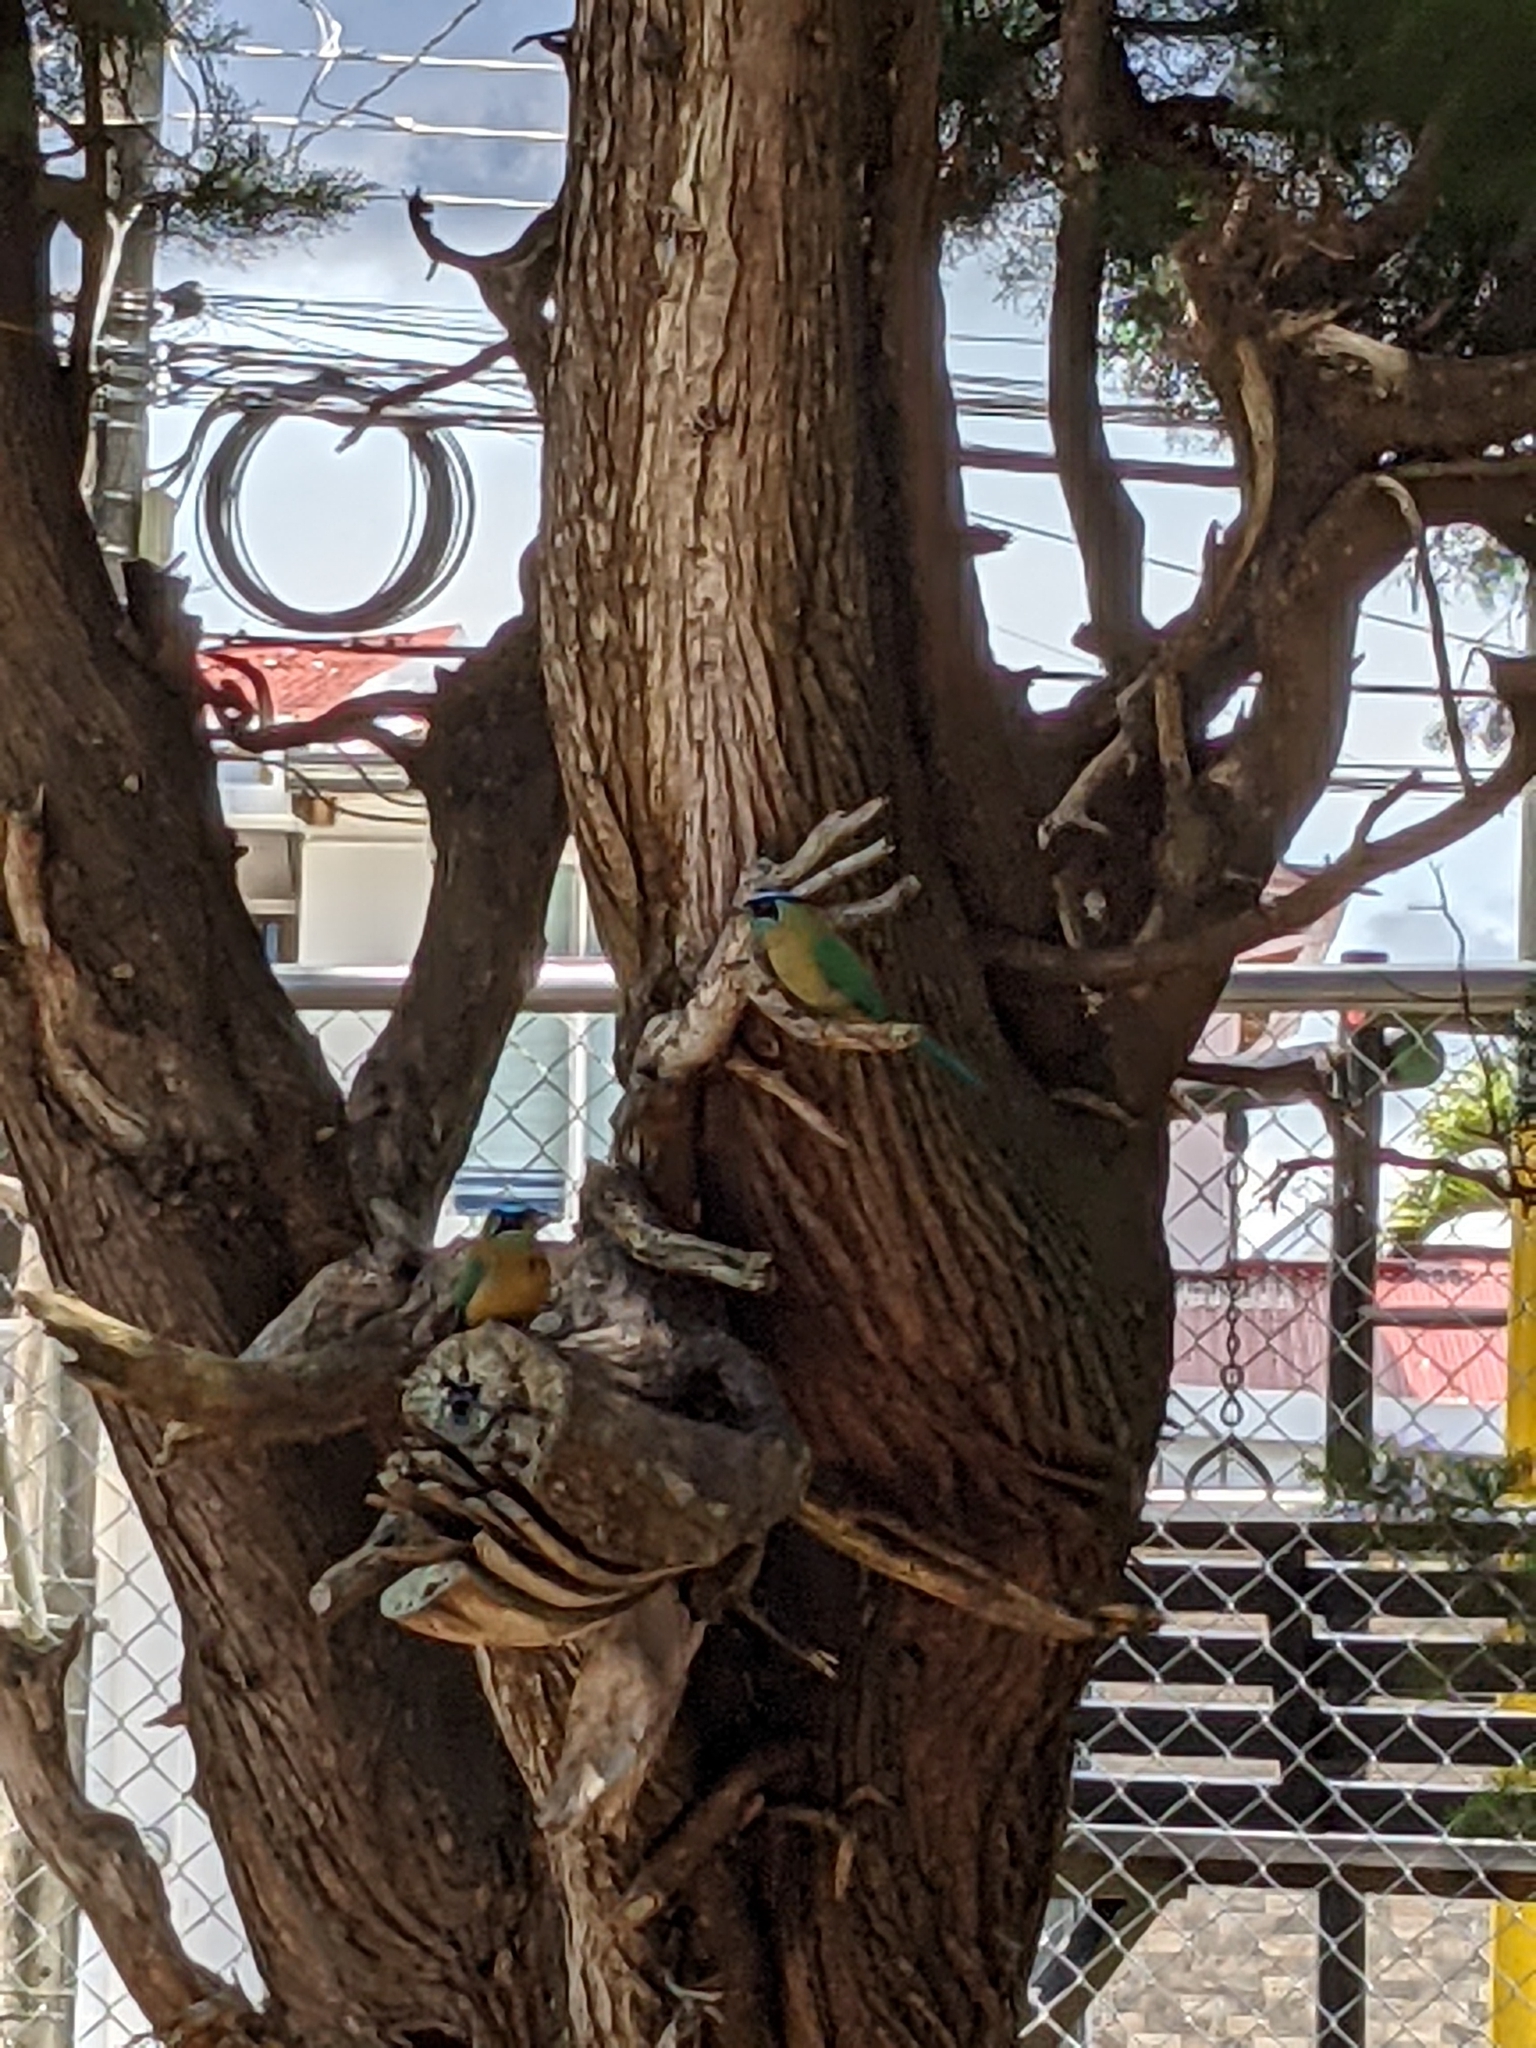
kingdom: Animalia
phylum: Chordata
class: Aves
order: Coraciiformes
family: Momotidae
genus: Momotus
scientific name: Momotus lessonii
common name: Lesson's motmot
